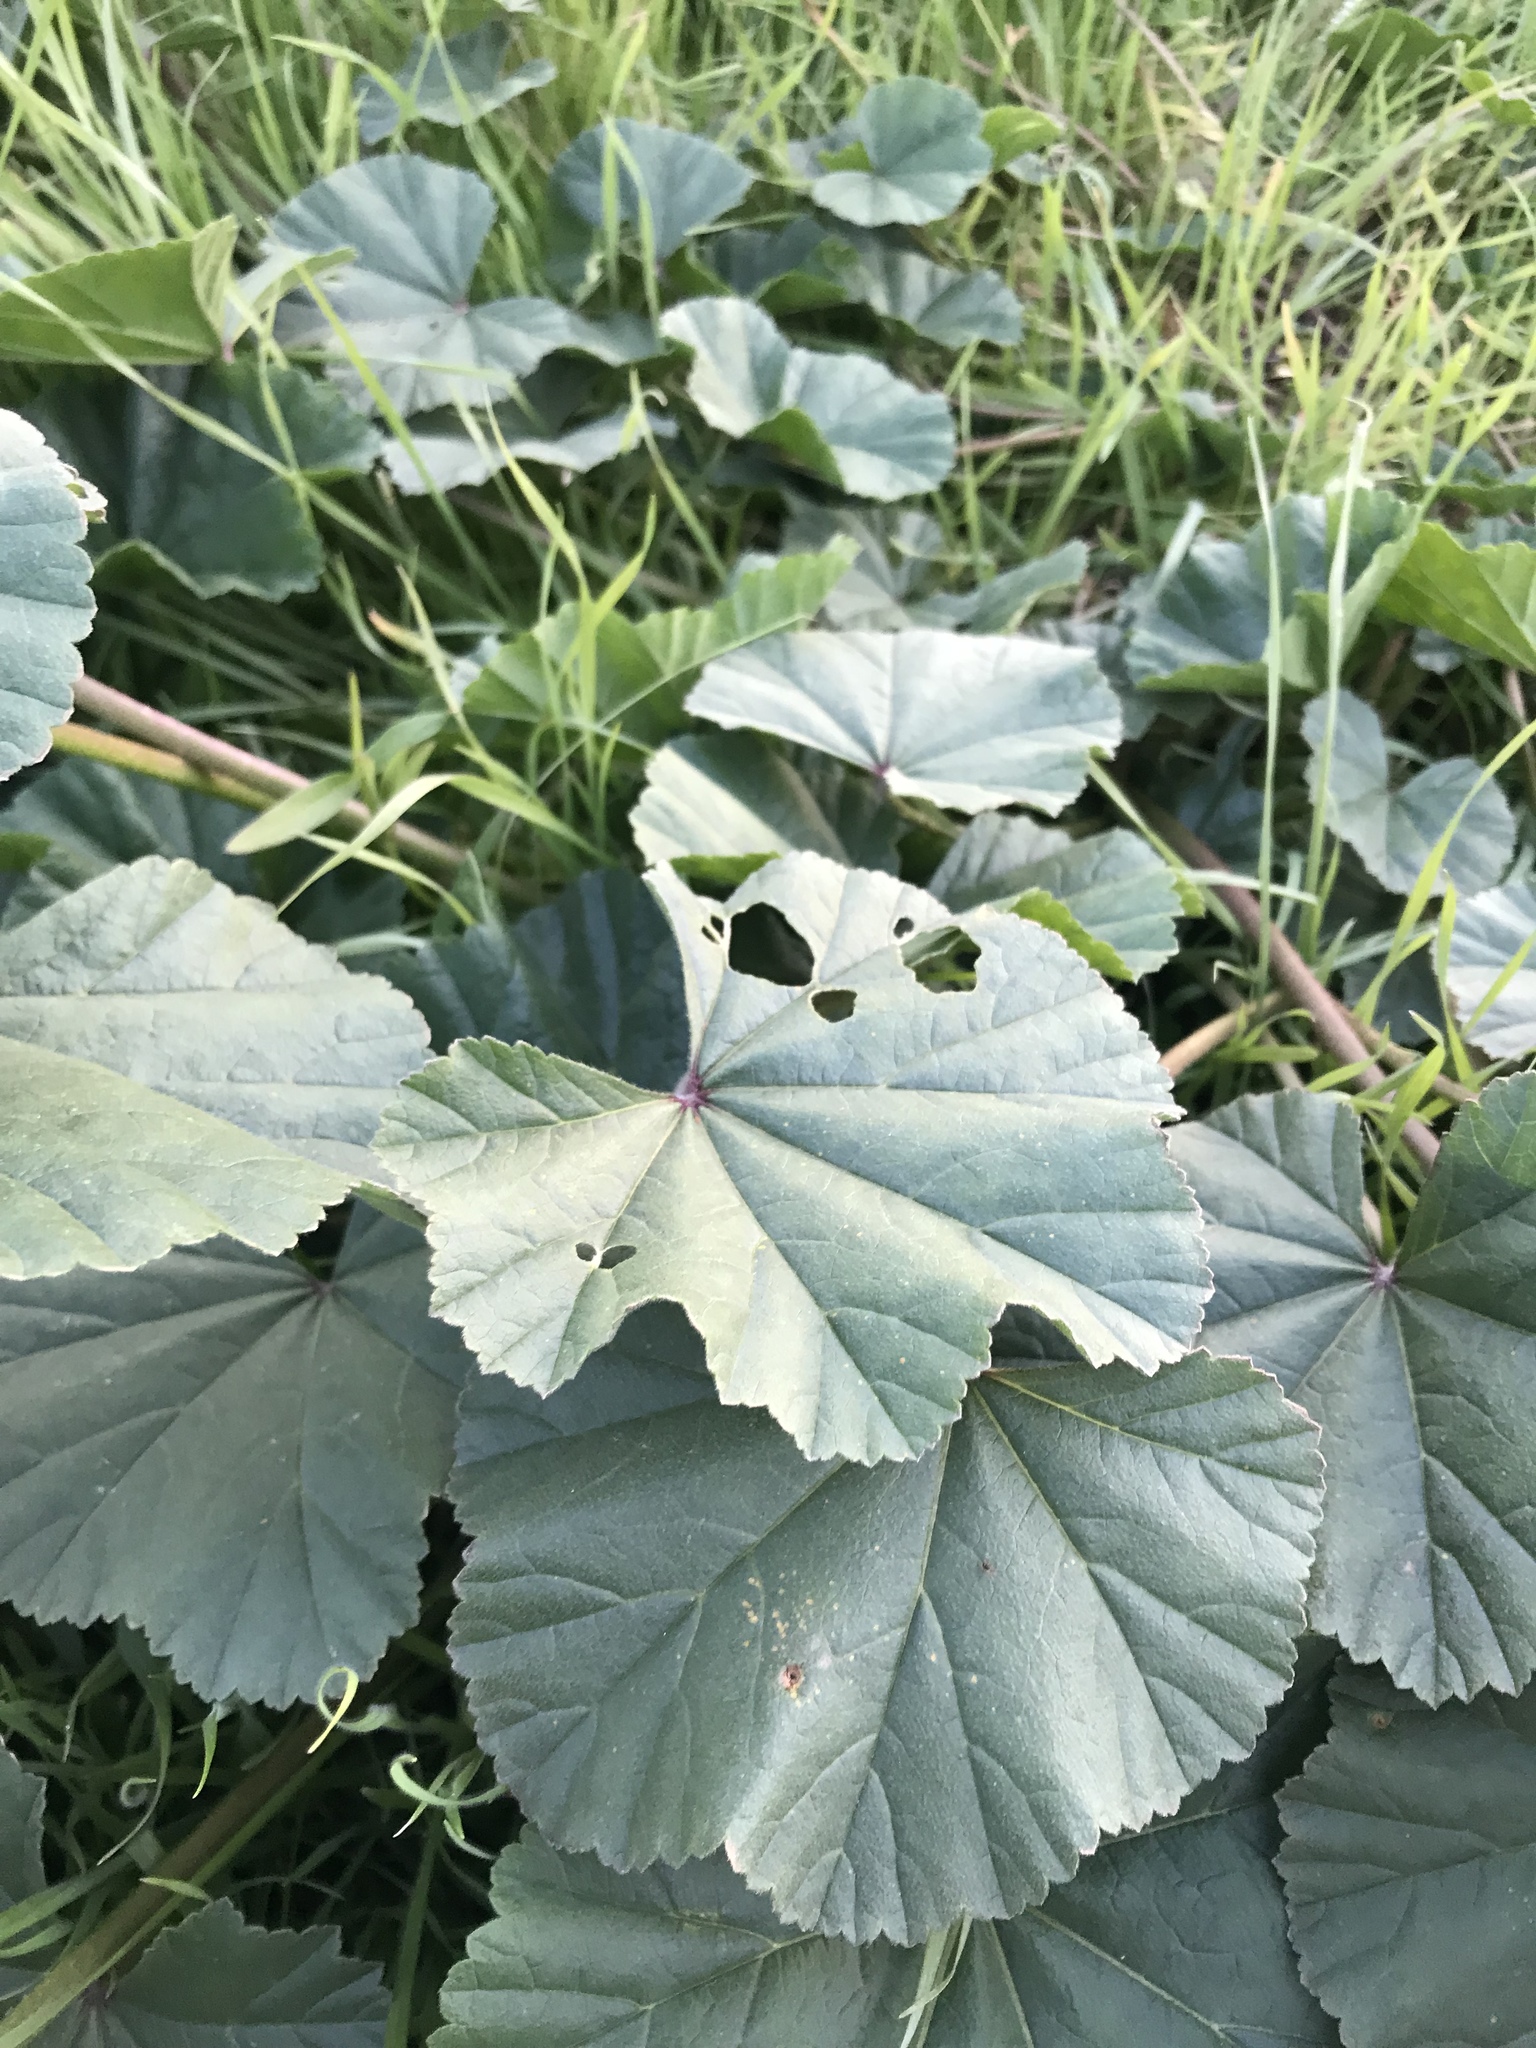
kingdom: Plantae
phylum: Tracheophyta
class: Magnoliopsida
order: Malvales
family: Malvaceae
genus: Malva
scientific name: Malva
